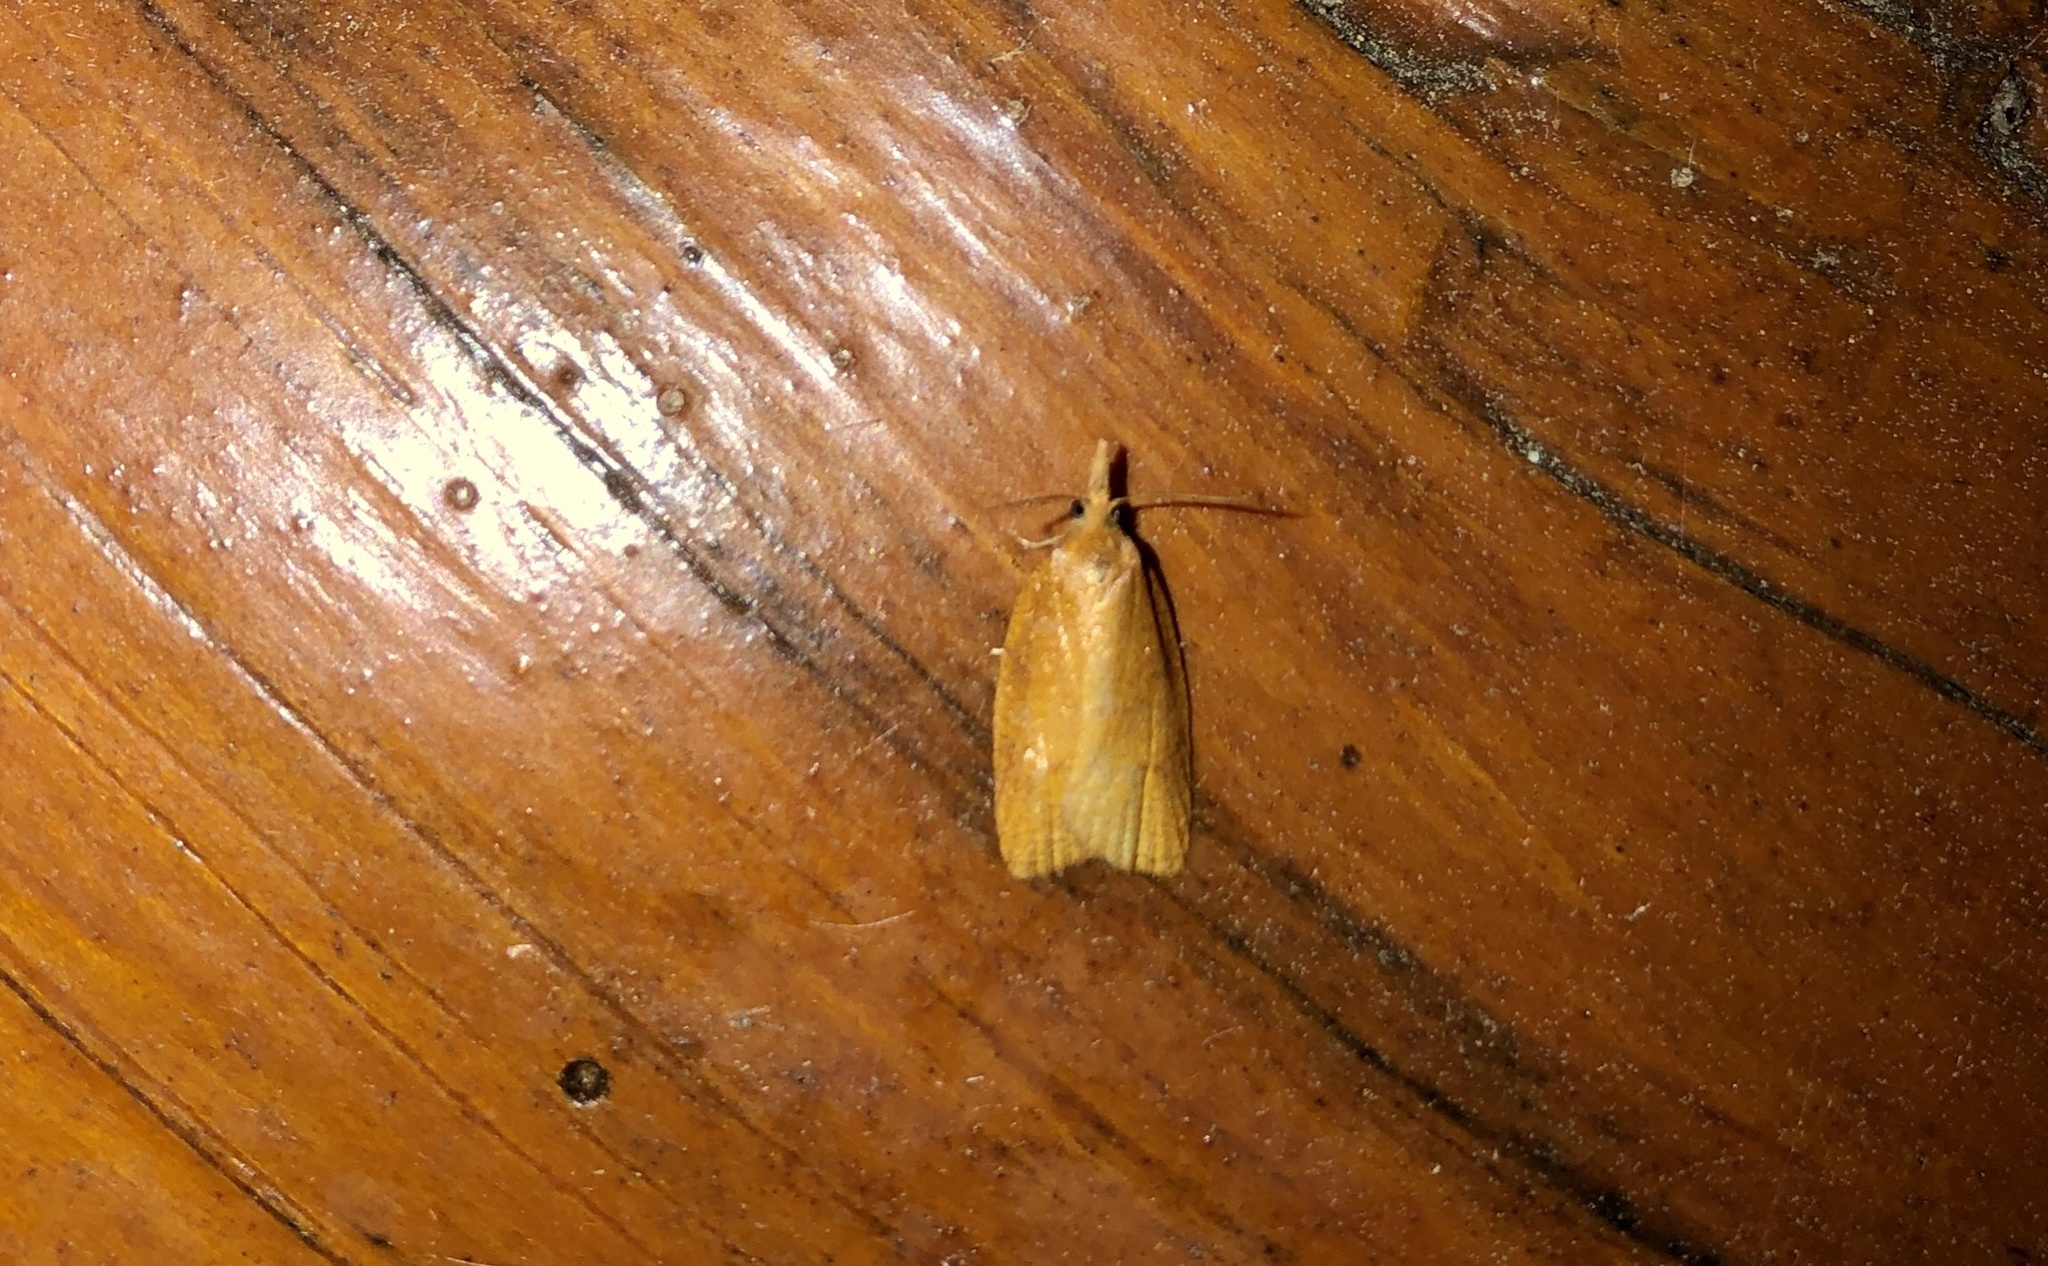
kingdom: Animalia
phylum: Arthropoda
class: Insecta
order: Lepidoptera
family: Tortricidae
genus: Cenopis
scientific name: Cenopis directana
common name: Chokecherry leafroller moth
